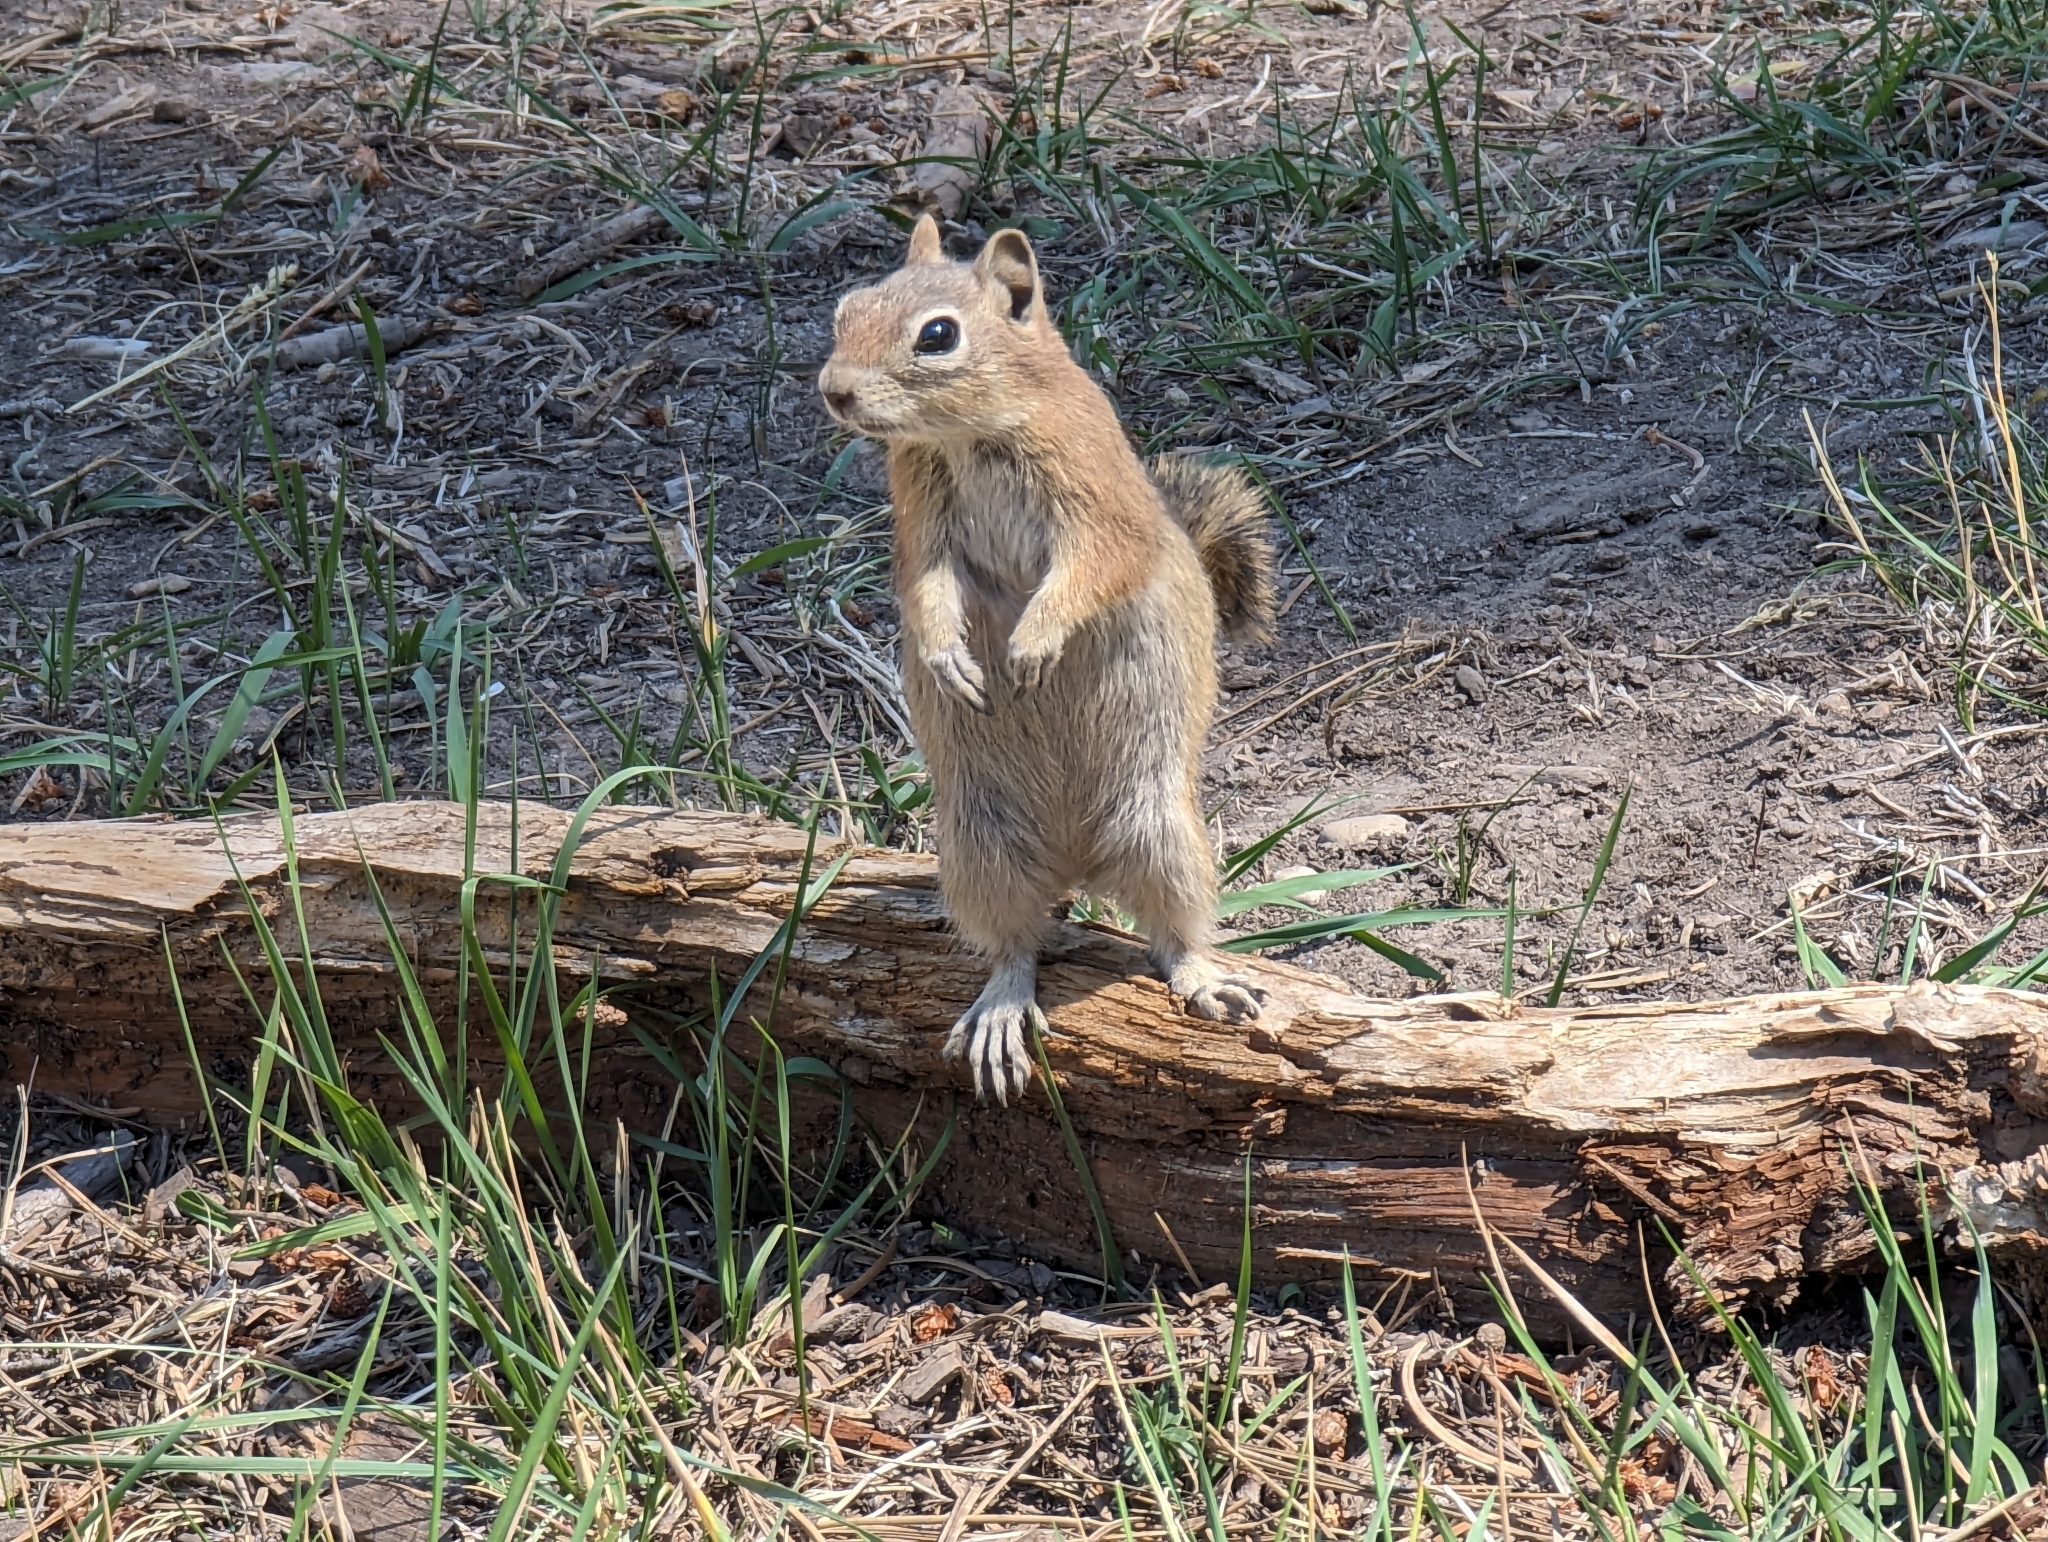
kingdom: Animalia
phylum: Chordata
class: Mammalia
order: Rodentia
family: Sciuridae
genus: Callospermophilus
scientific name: Callospermophilus lateralis
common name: Golden-mantled ground squirrel
